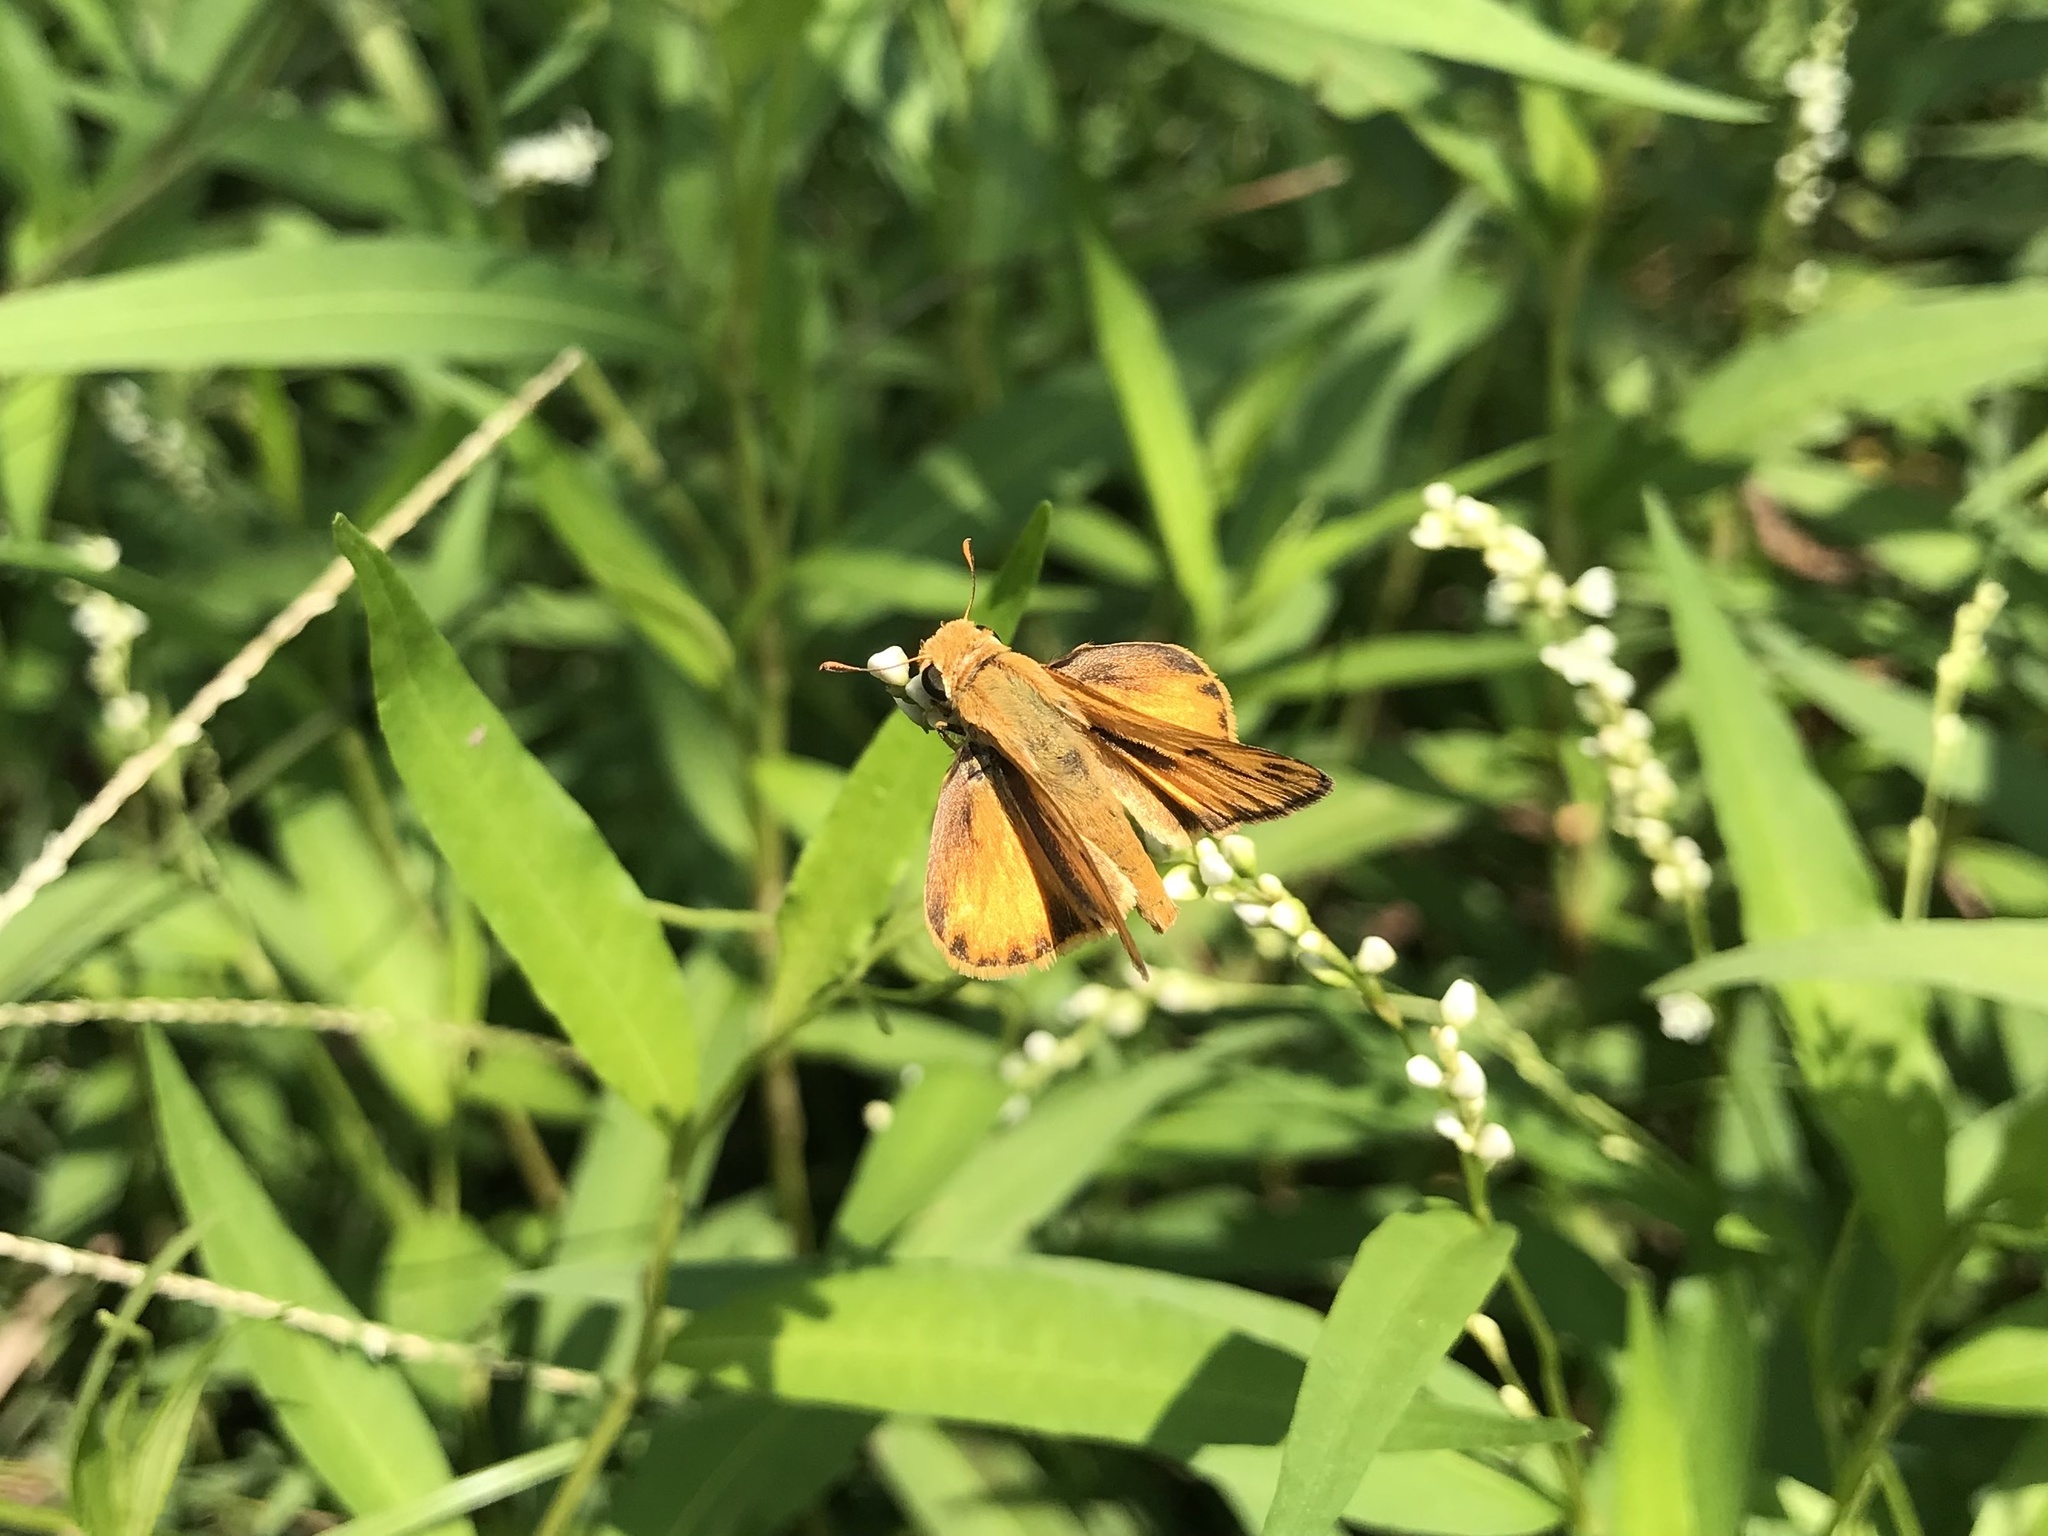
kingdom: Animalia
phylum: Arthropoda
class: Insecta
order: Lepidoptera
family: Hesperiidae
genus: Hylephila
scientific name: Hylephila phyleus
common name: Fiery skipper
